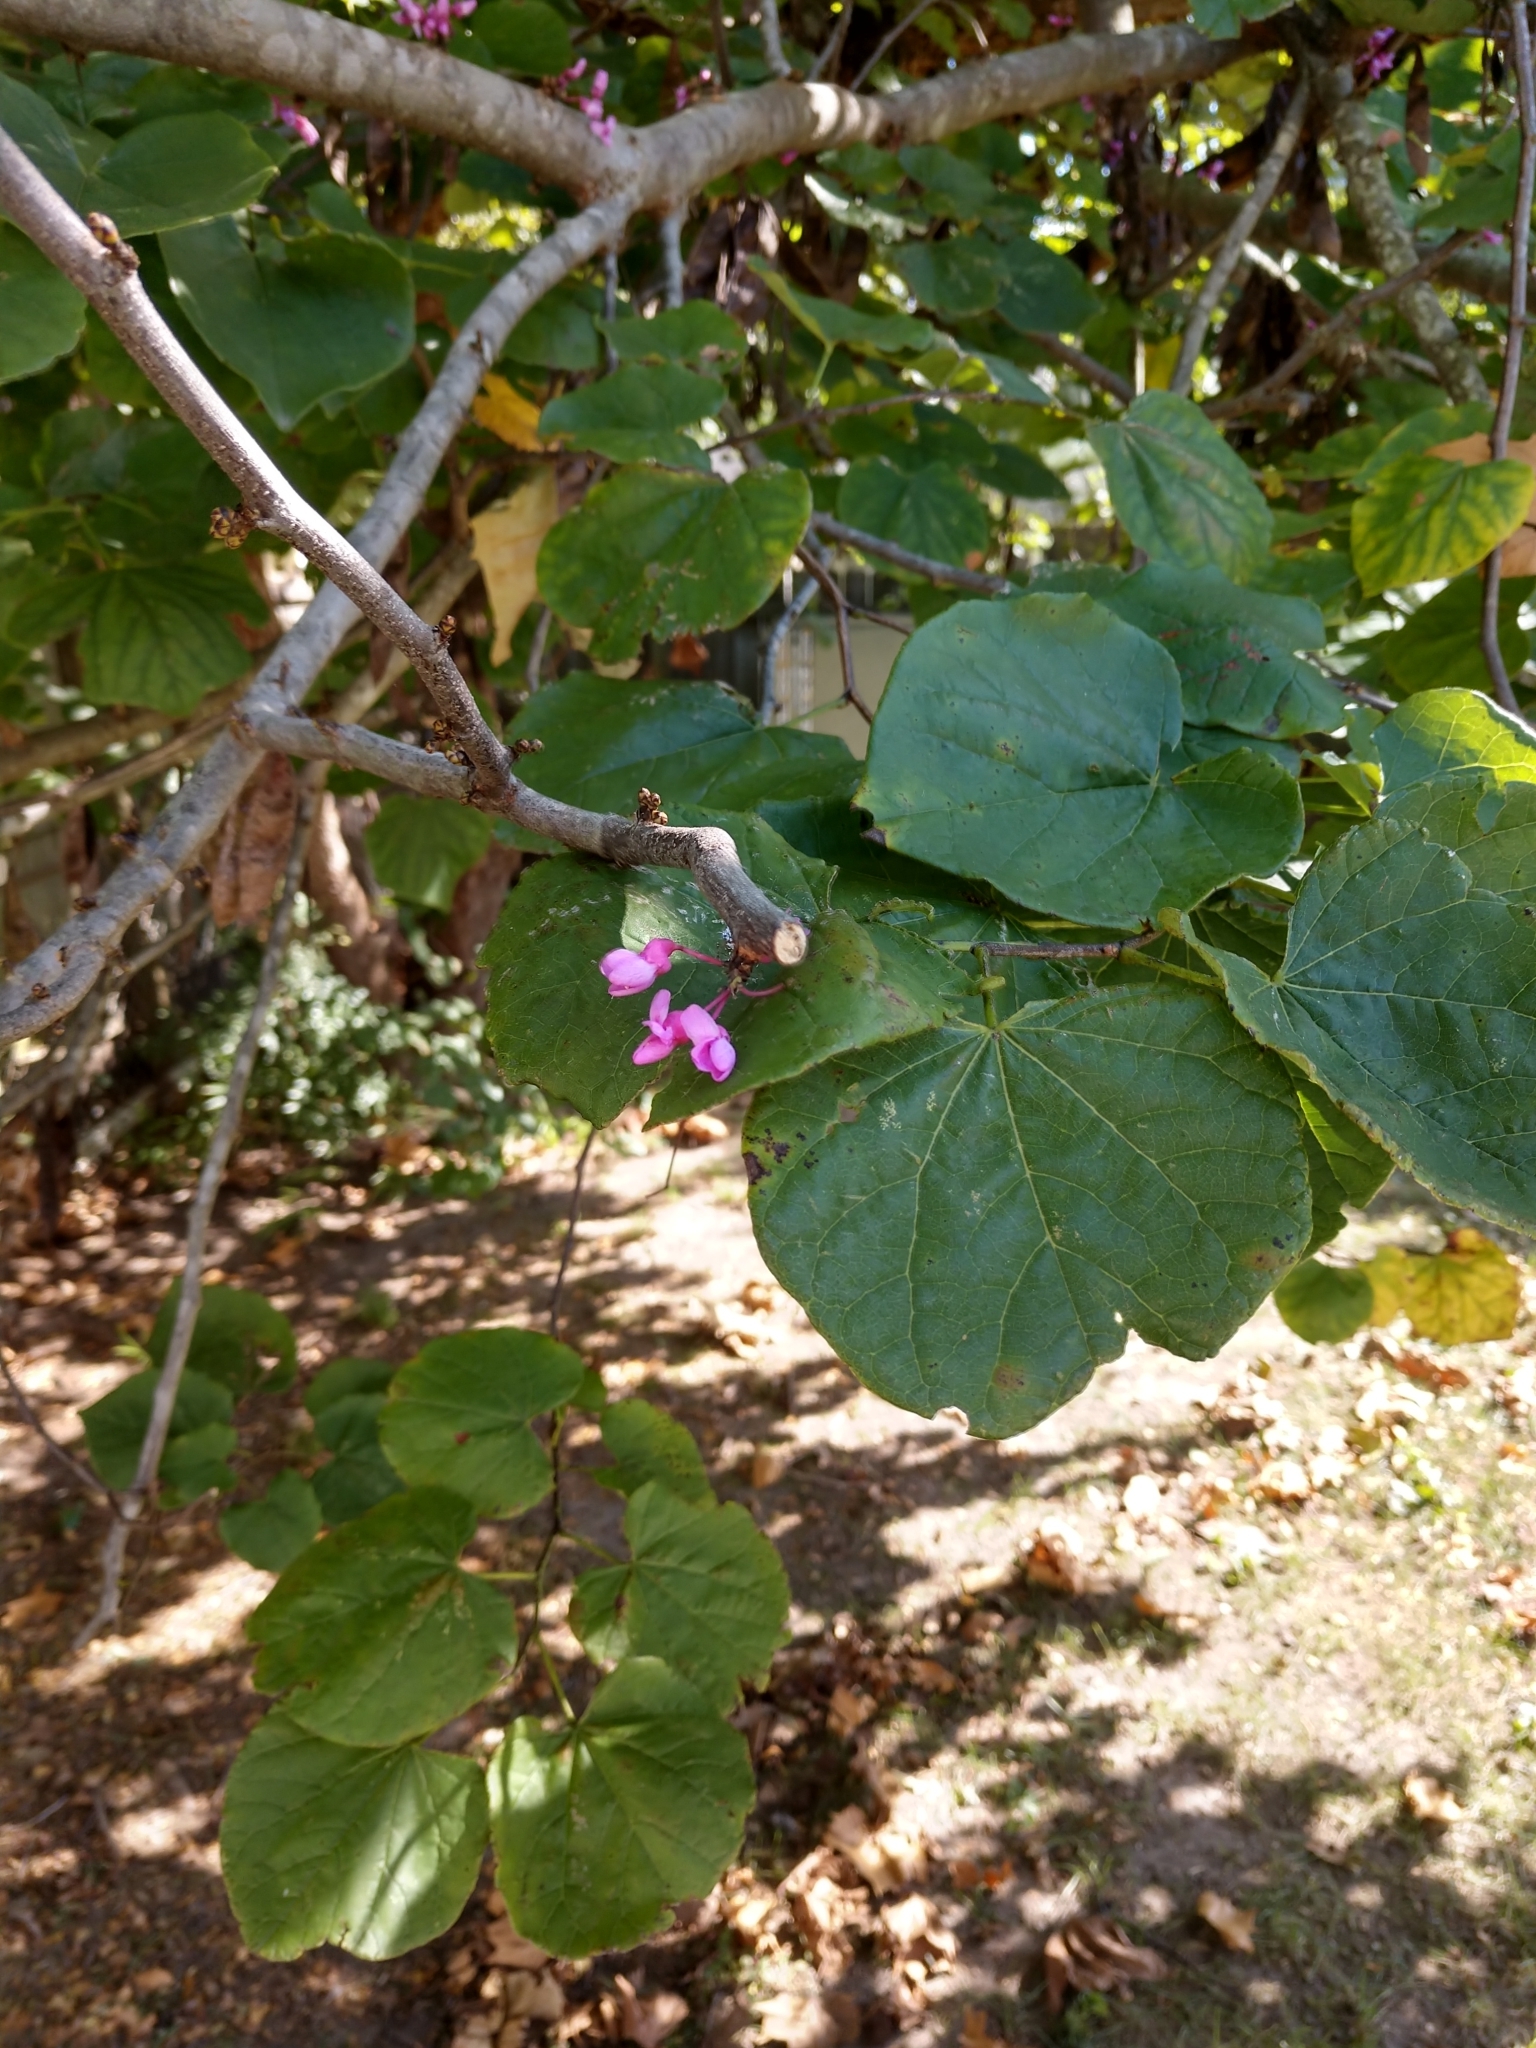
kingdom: Plantae
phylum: Tracheophyta
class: Magnoliopsida
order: Fabales
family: Fabaceae
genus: Cercis
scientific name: Cercis canadensis
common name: Eastern redbud
